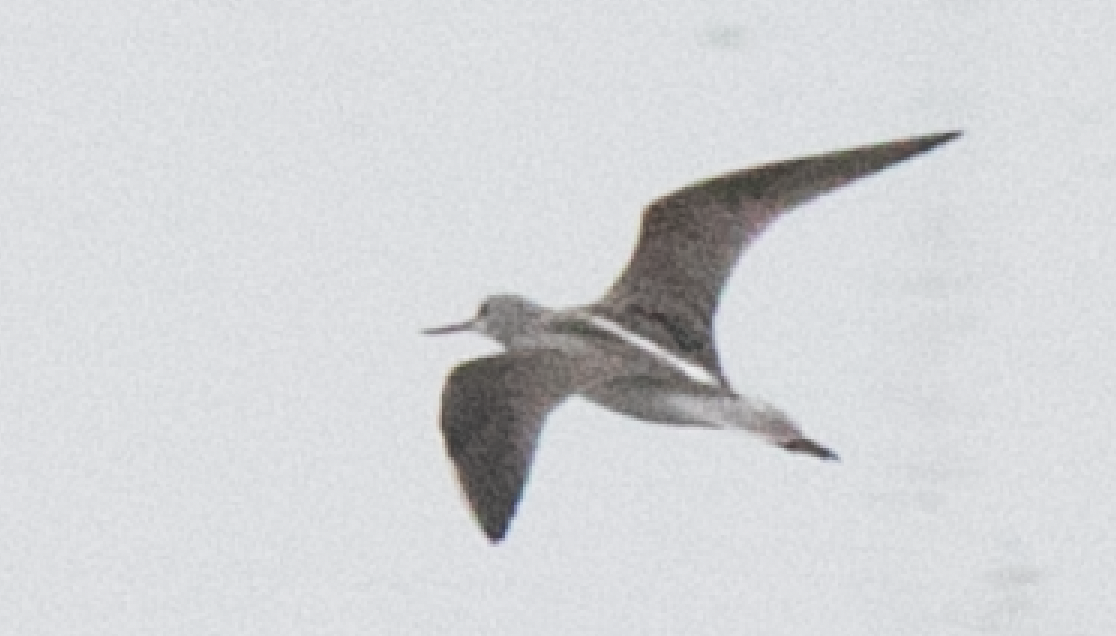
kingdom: Animalia
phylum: Chordata
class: Aves
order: Charadriiformes
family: Scolopacidae
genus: Tringa
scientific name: Tringa nebularia
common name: Common greenshank
